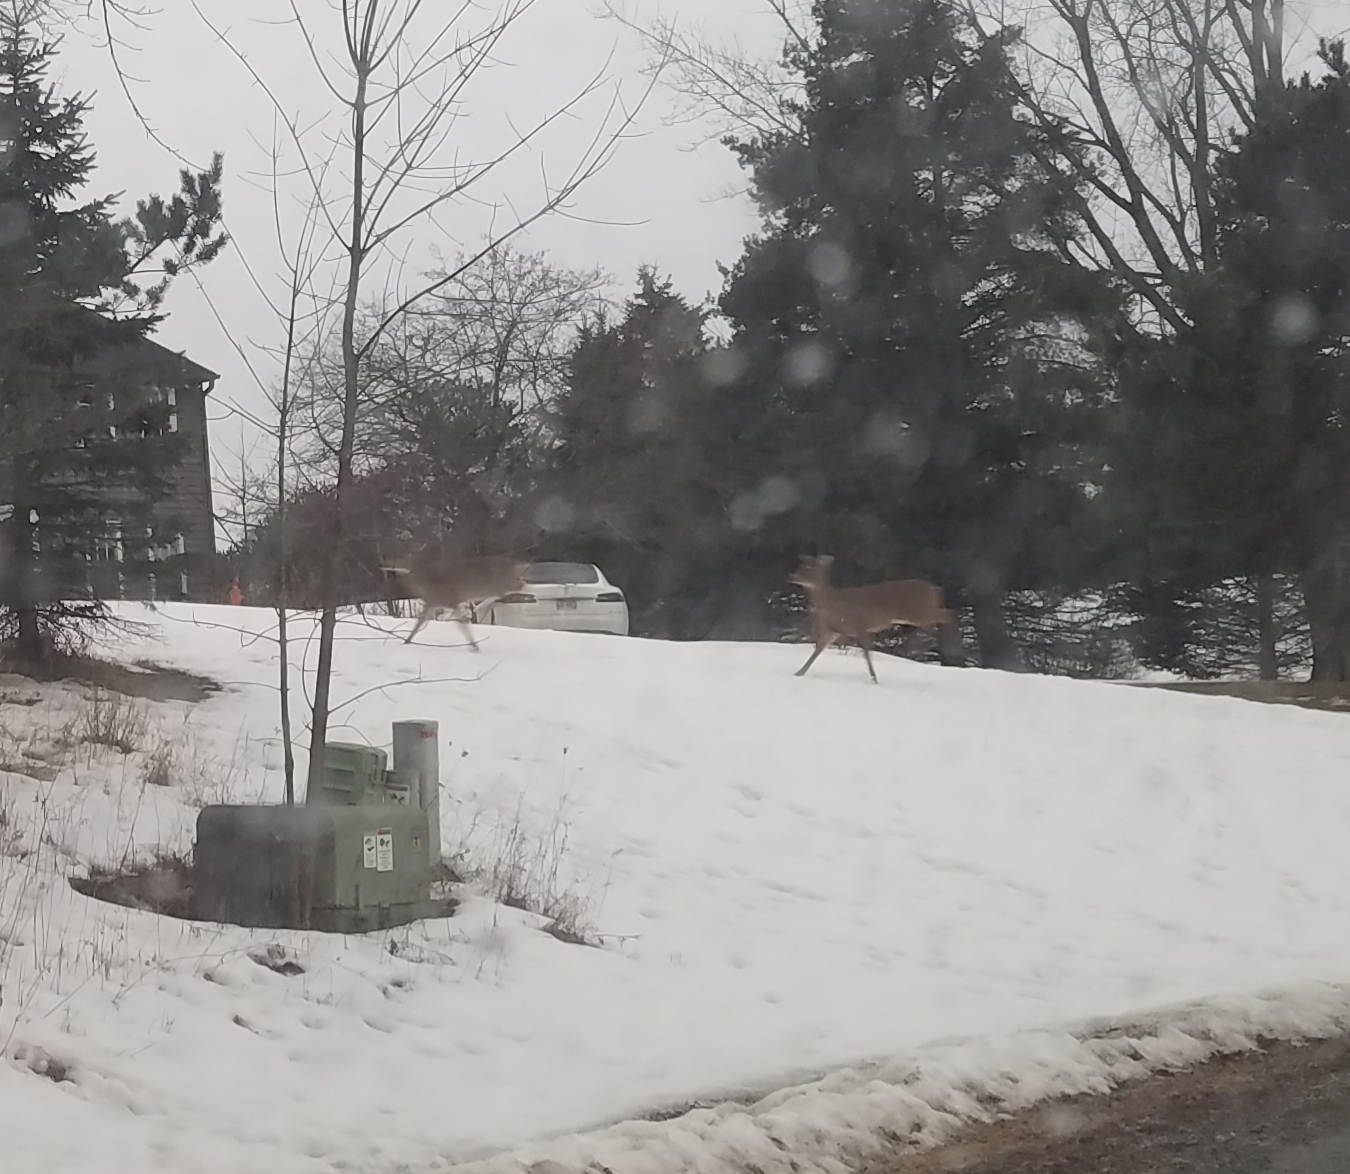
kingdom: Animalia
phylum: Chordata
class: Mammalia
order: Artiodactyla
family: Cervidae
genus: Odocoileus
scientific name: Odocoileus virginianus
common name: White-tailed deer
